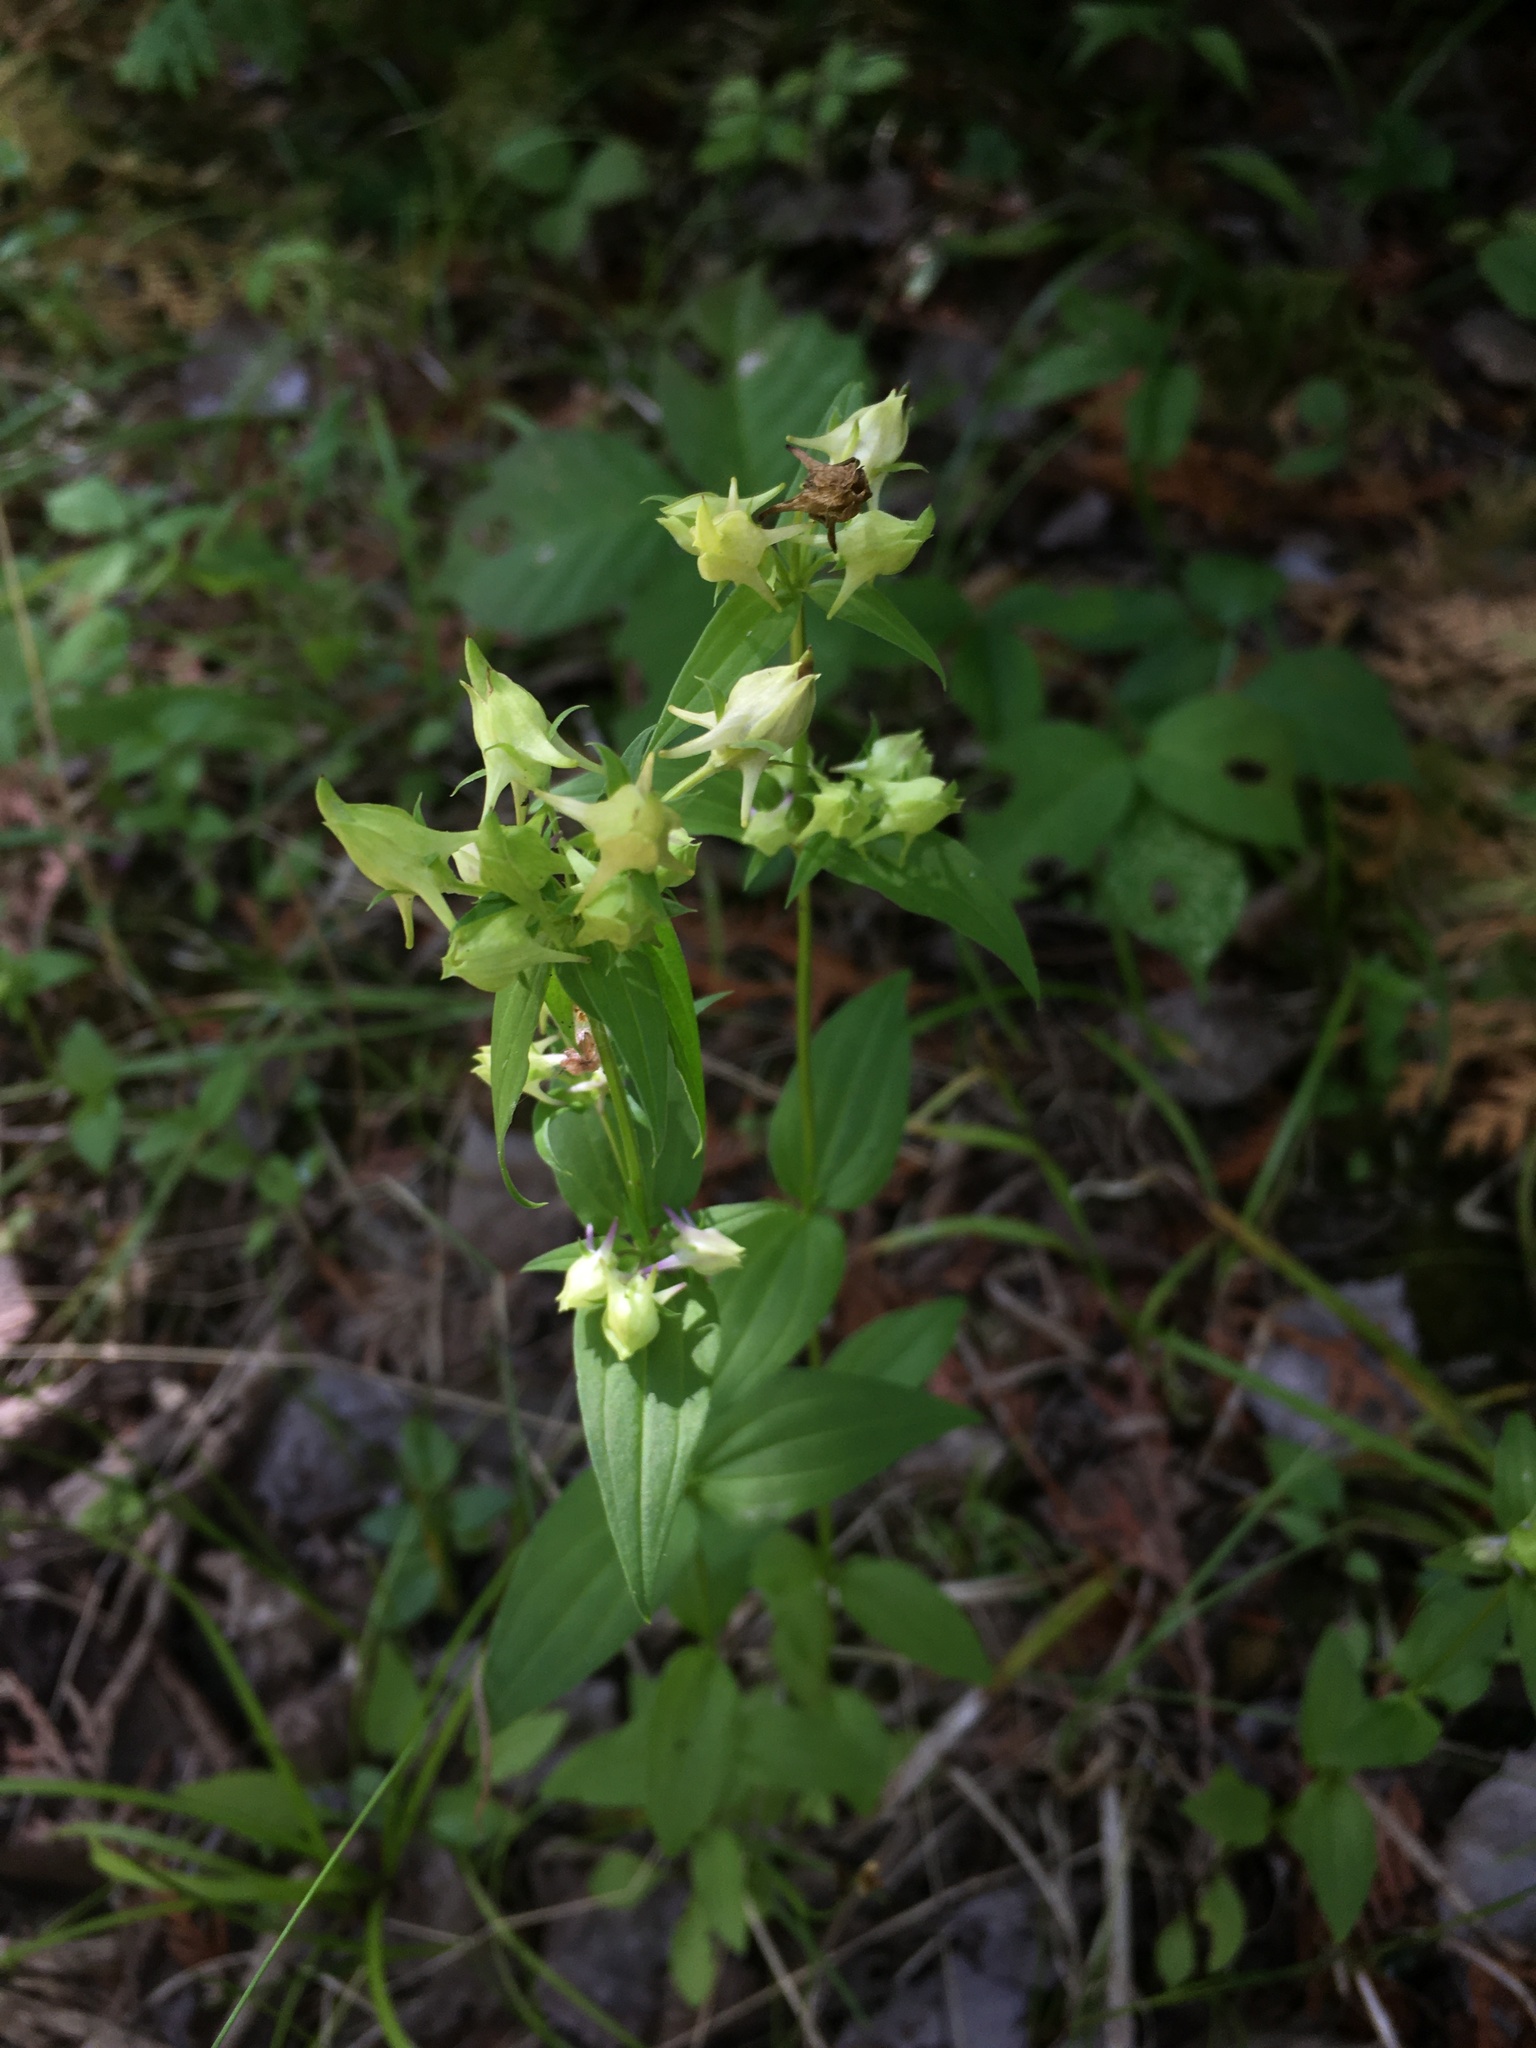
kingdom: Plantae
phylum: Tracheophyta
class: Magnoliopsida
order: Gentianales
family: Gentianaceae
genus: Halenia
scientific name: Halenia deflexa
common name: American spurred gentian
